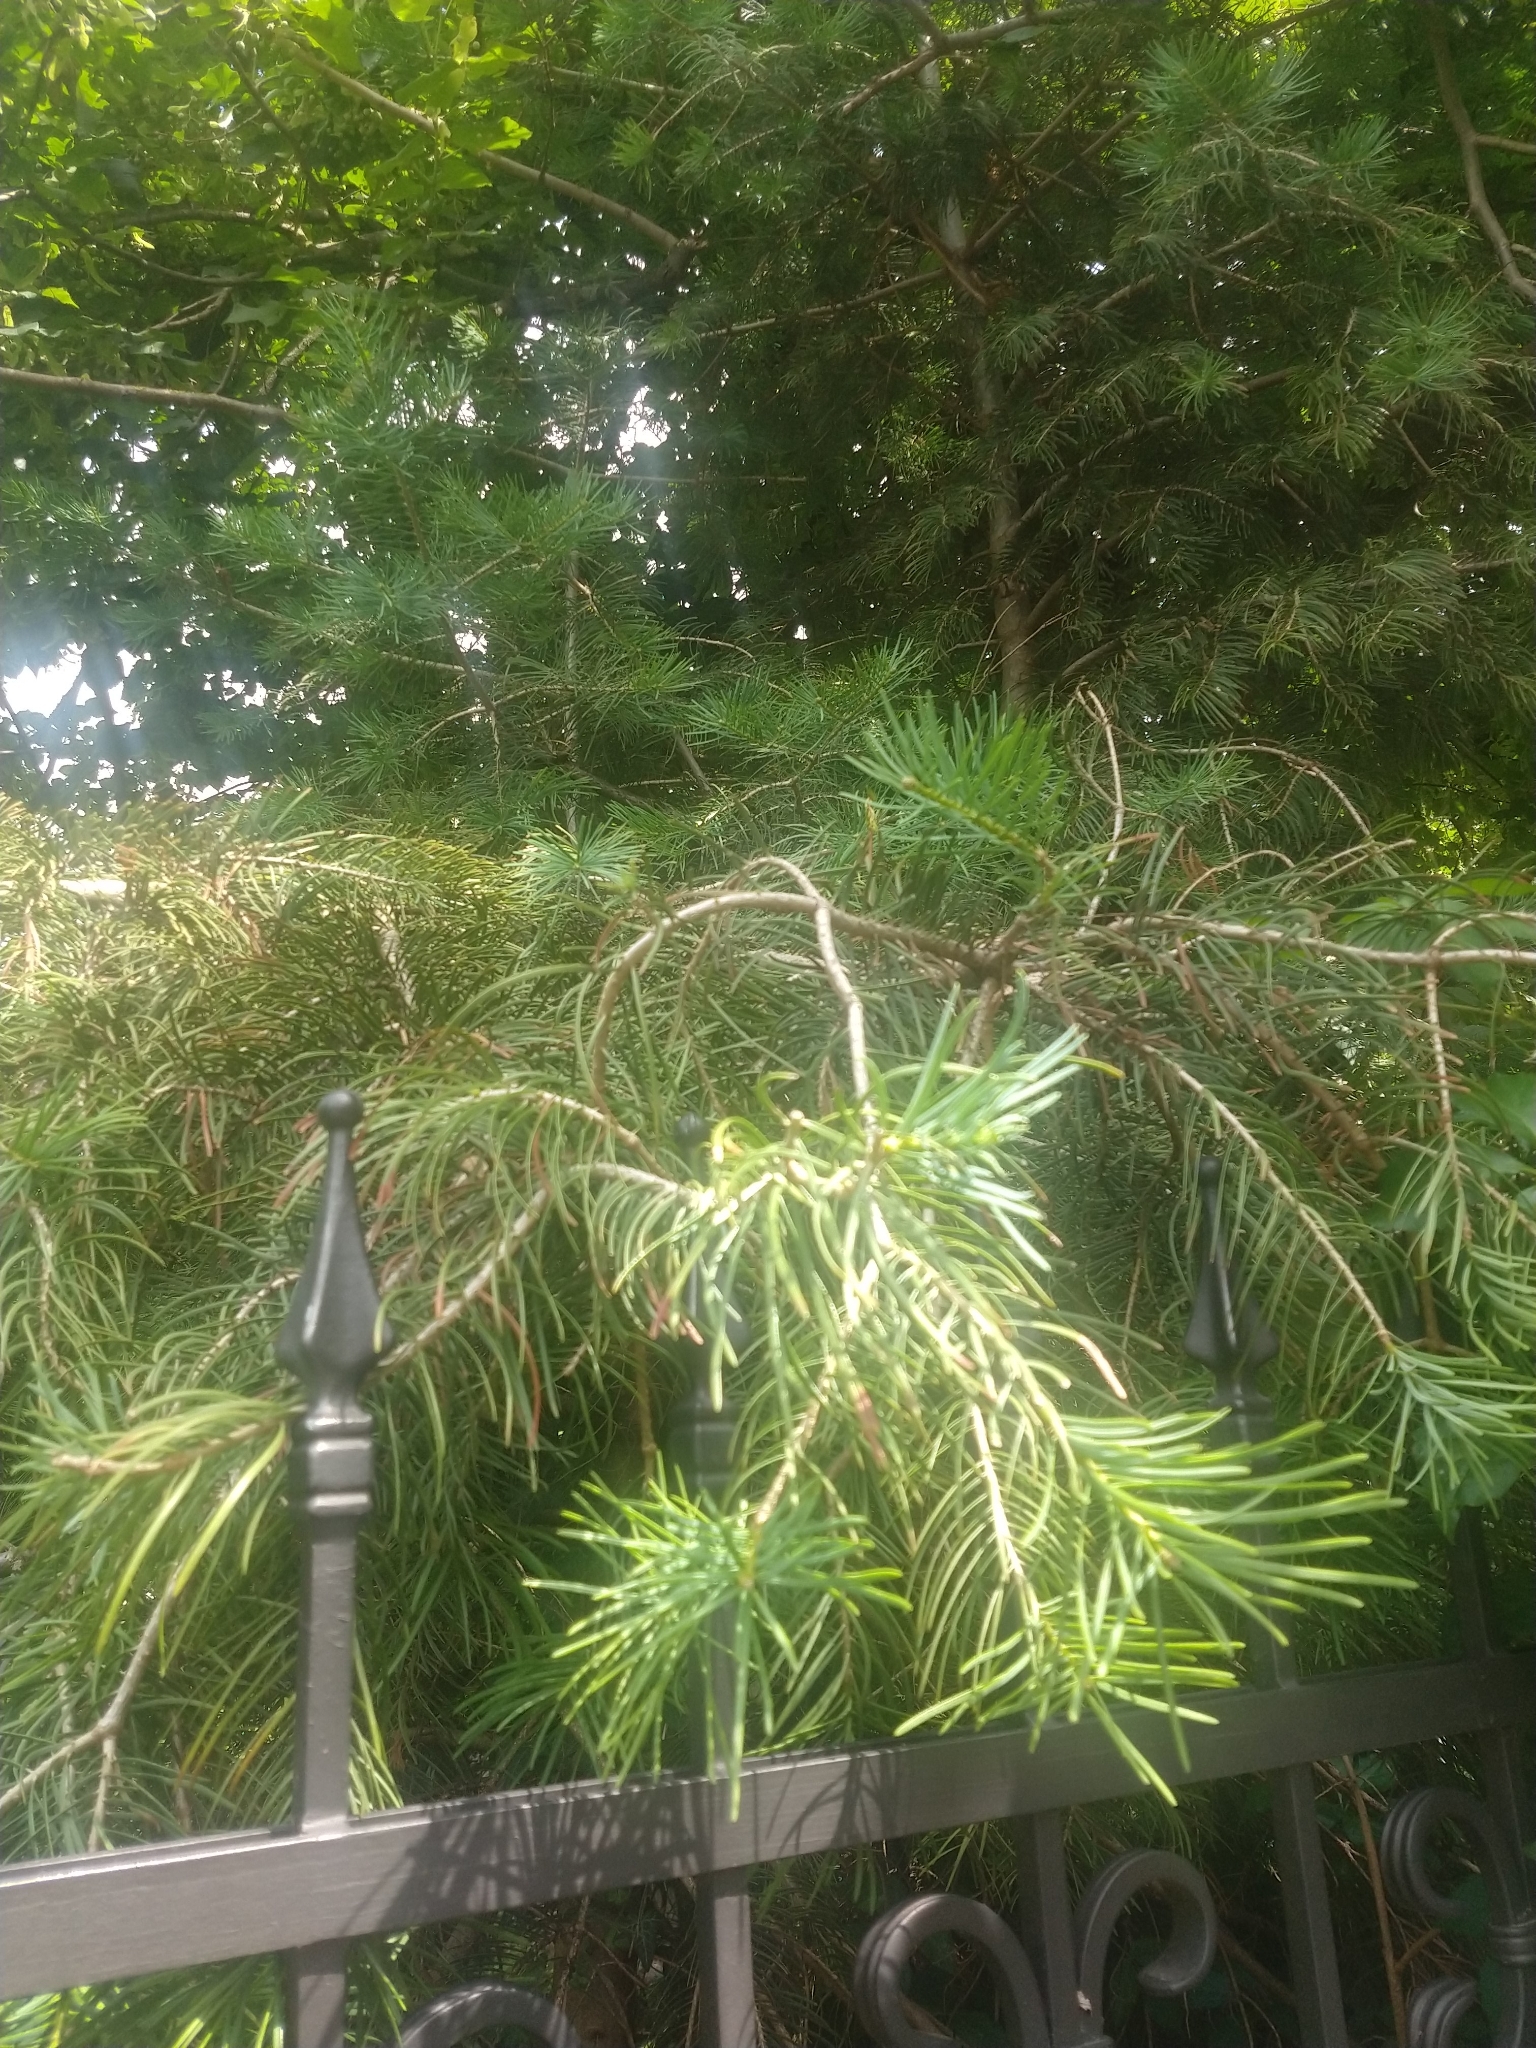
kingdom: Plantae
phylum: Tracheophyta
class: Pinopsida
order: Pinales
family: Pinaceae
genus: Abies
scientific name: Abies concolor
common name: Colorado fir
